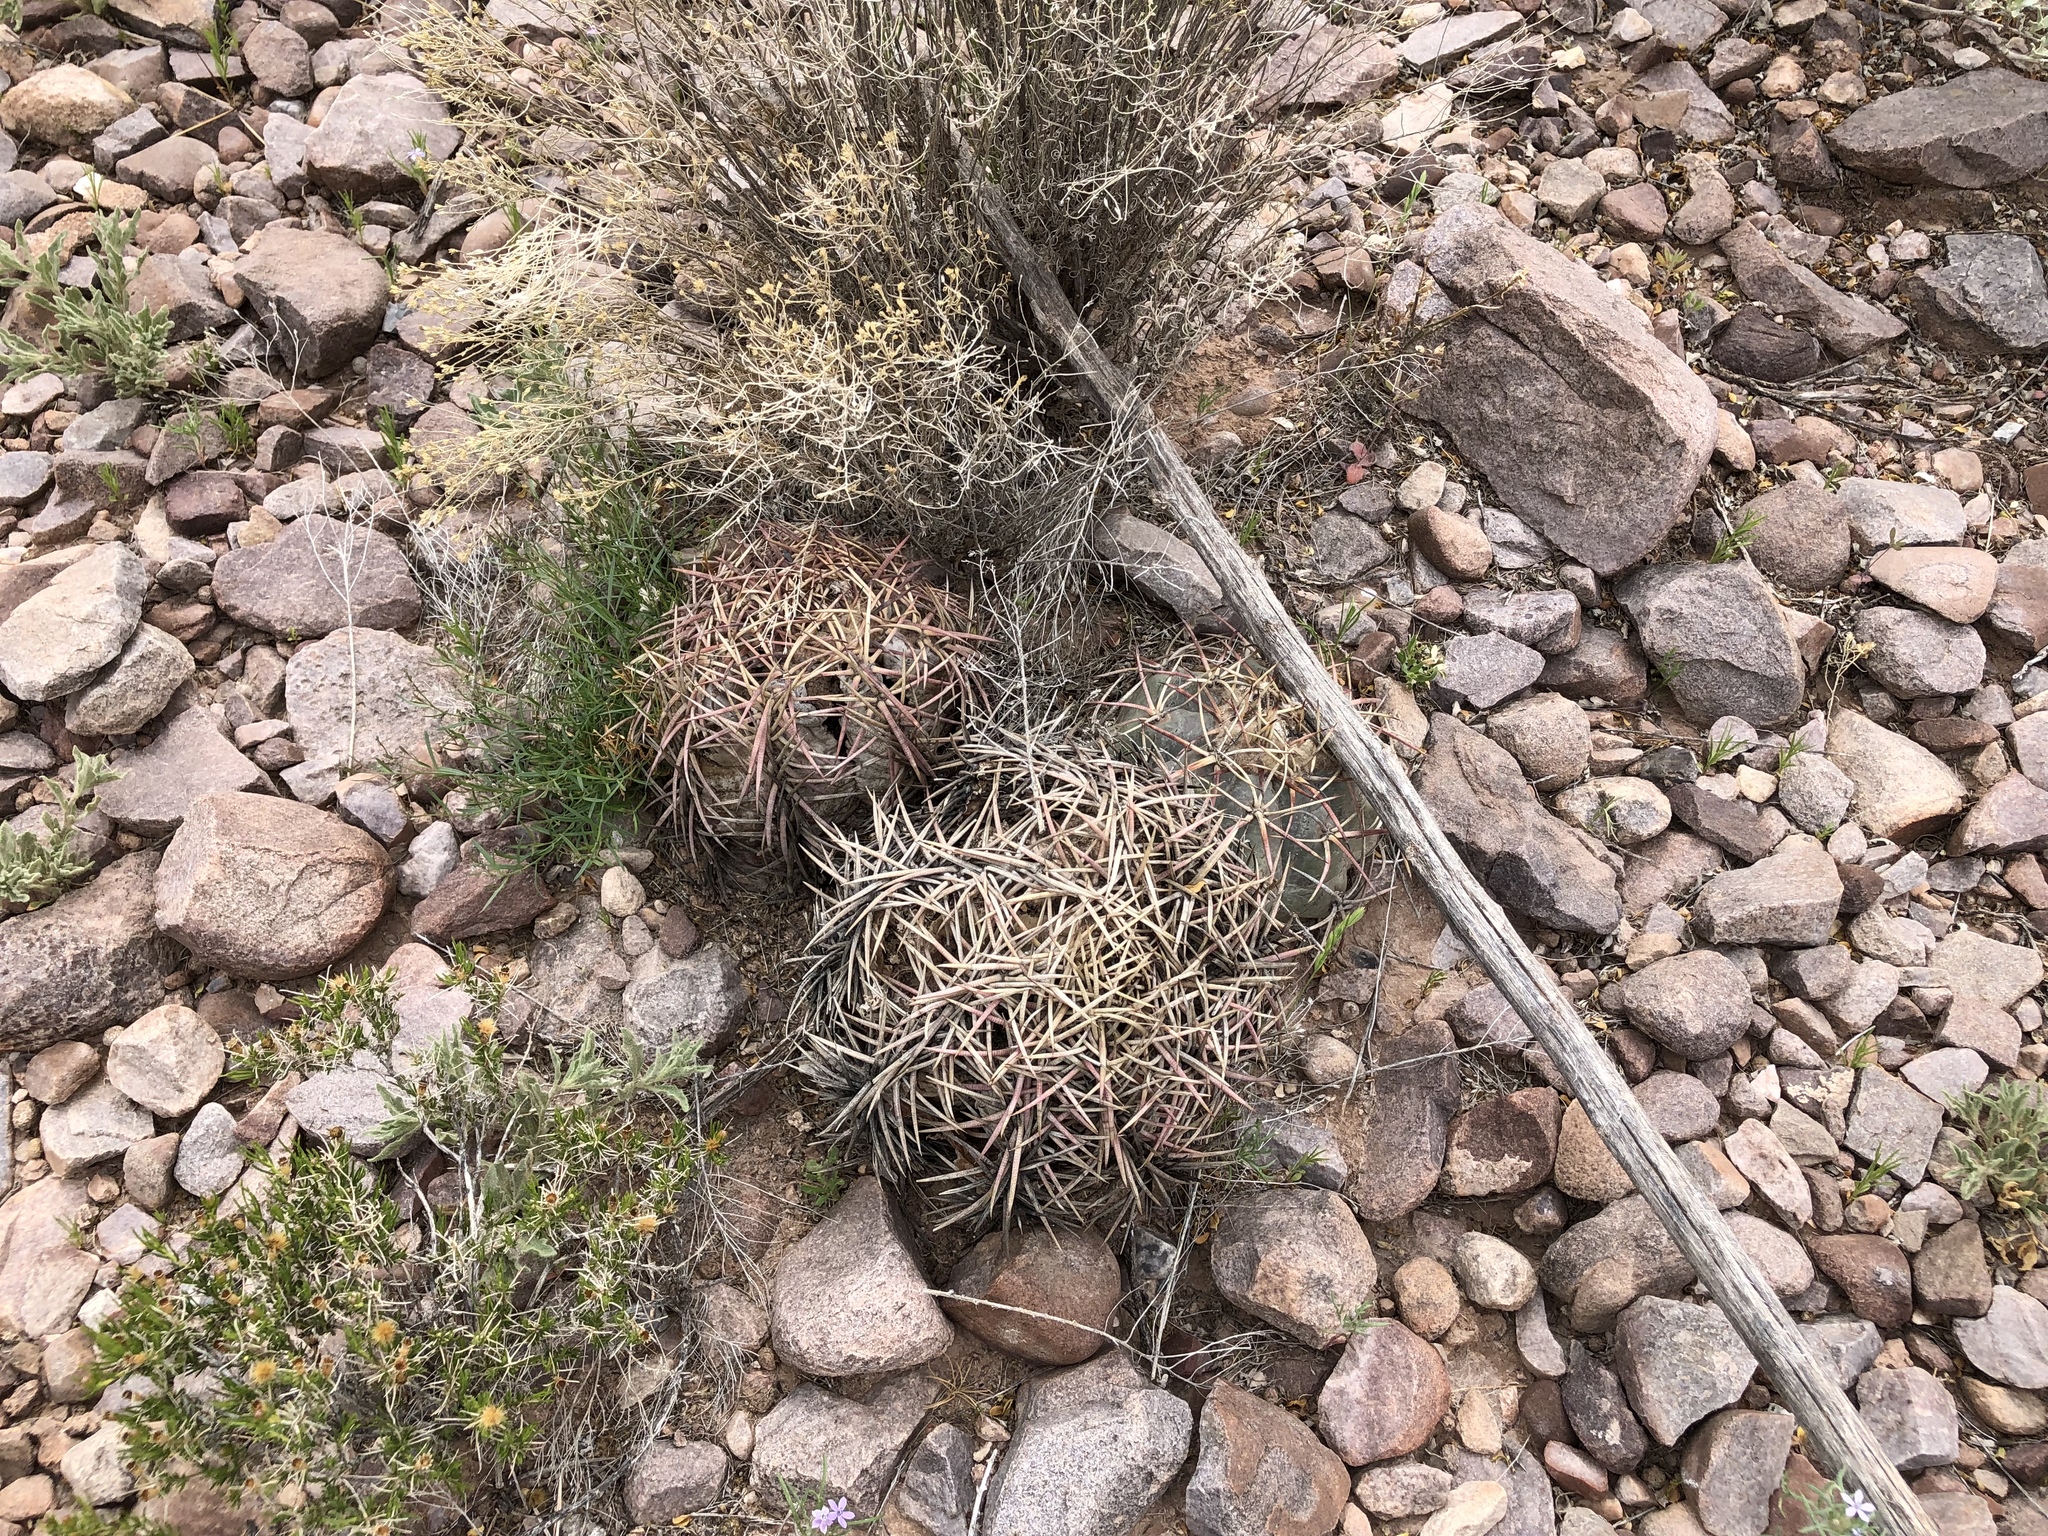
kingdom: Plantae
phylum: Tracheophyta
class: Magnoliopsida
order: Caryophyllales
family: Cactaceae
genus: Echinocactus
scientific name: Echinocactus horizonthalonius
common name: Devilshead
